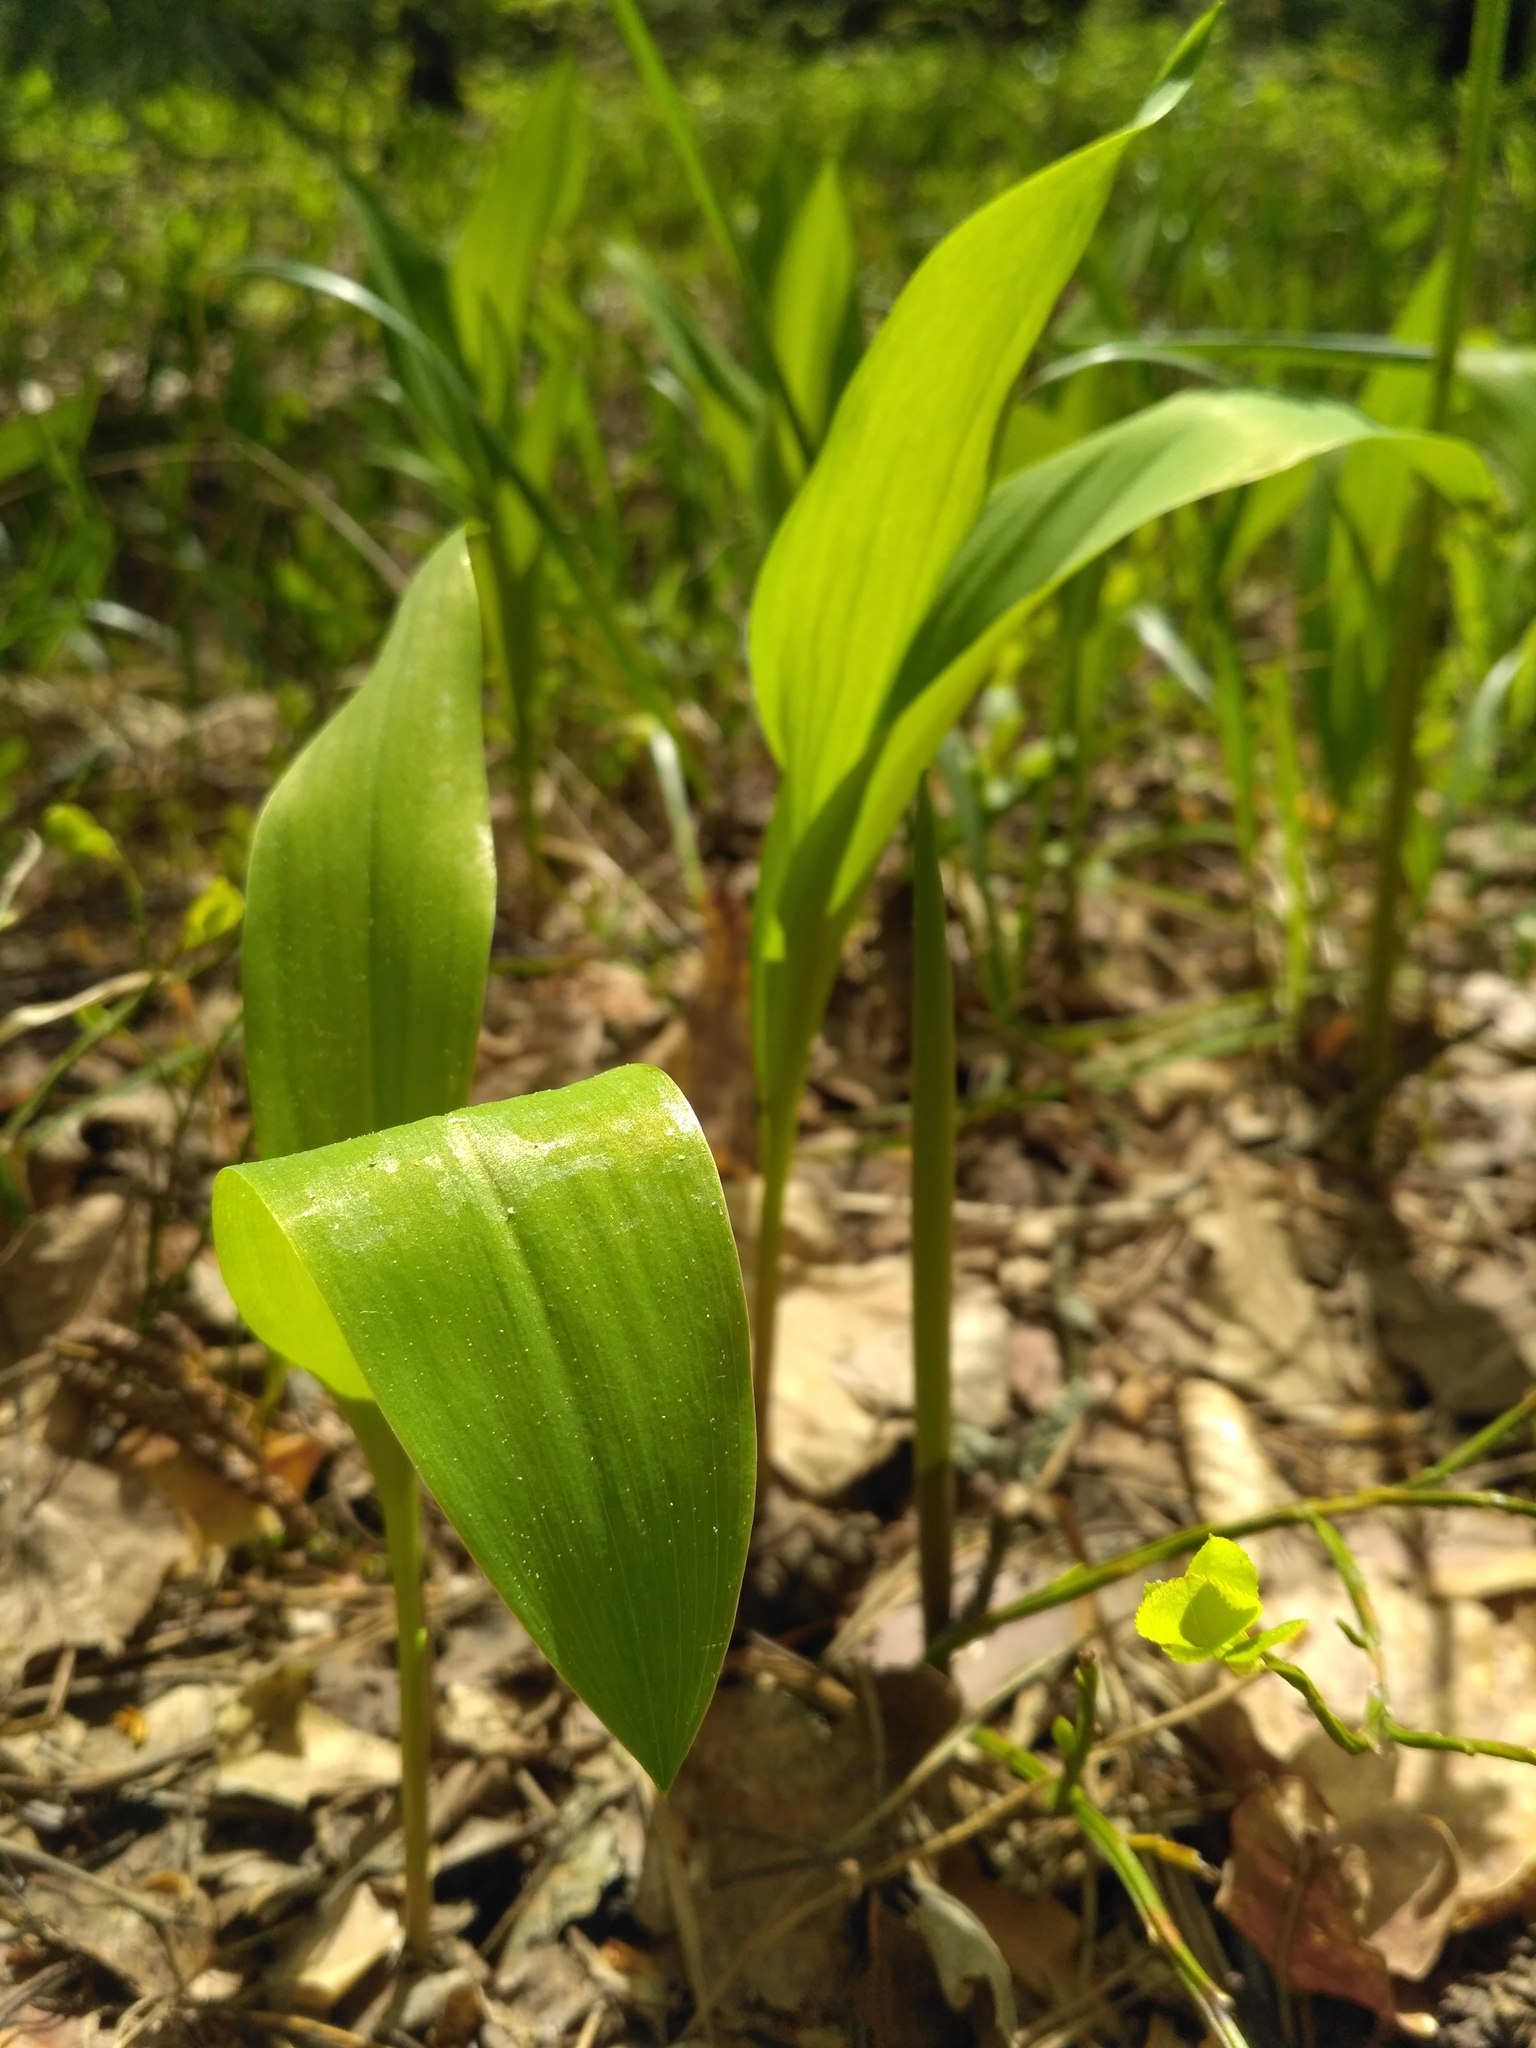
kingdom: Plantae
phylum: Tracheophyta
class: Liliopsida
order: Asparagales
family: Asparagaceae
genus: Convallaria
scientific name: Convallaria majalis
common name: Lily-of-the-valley
